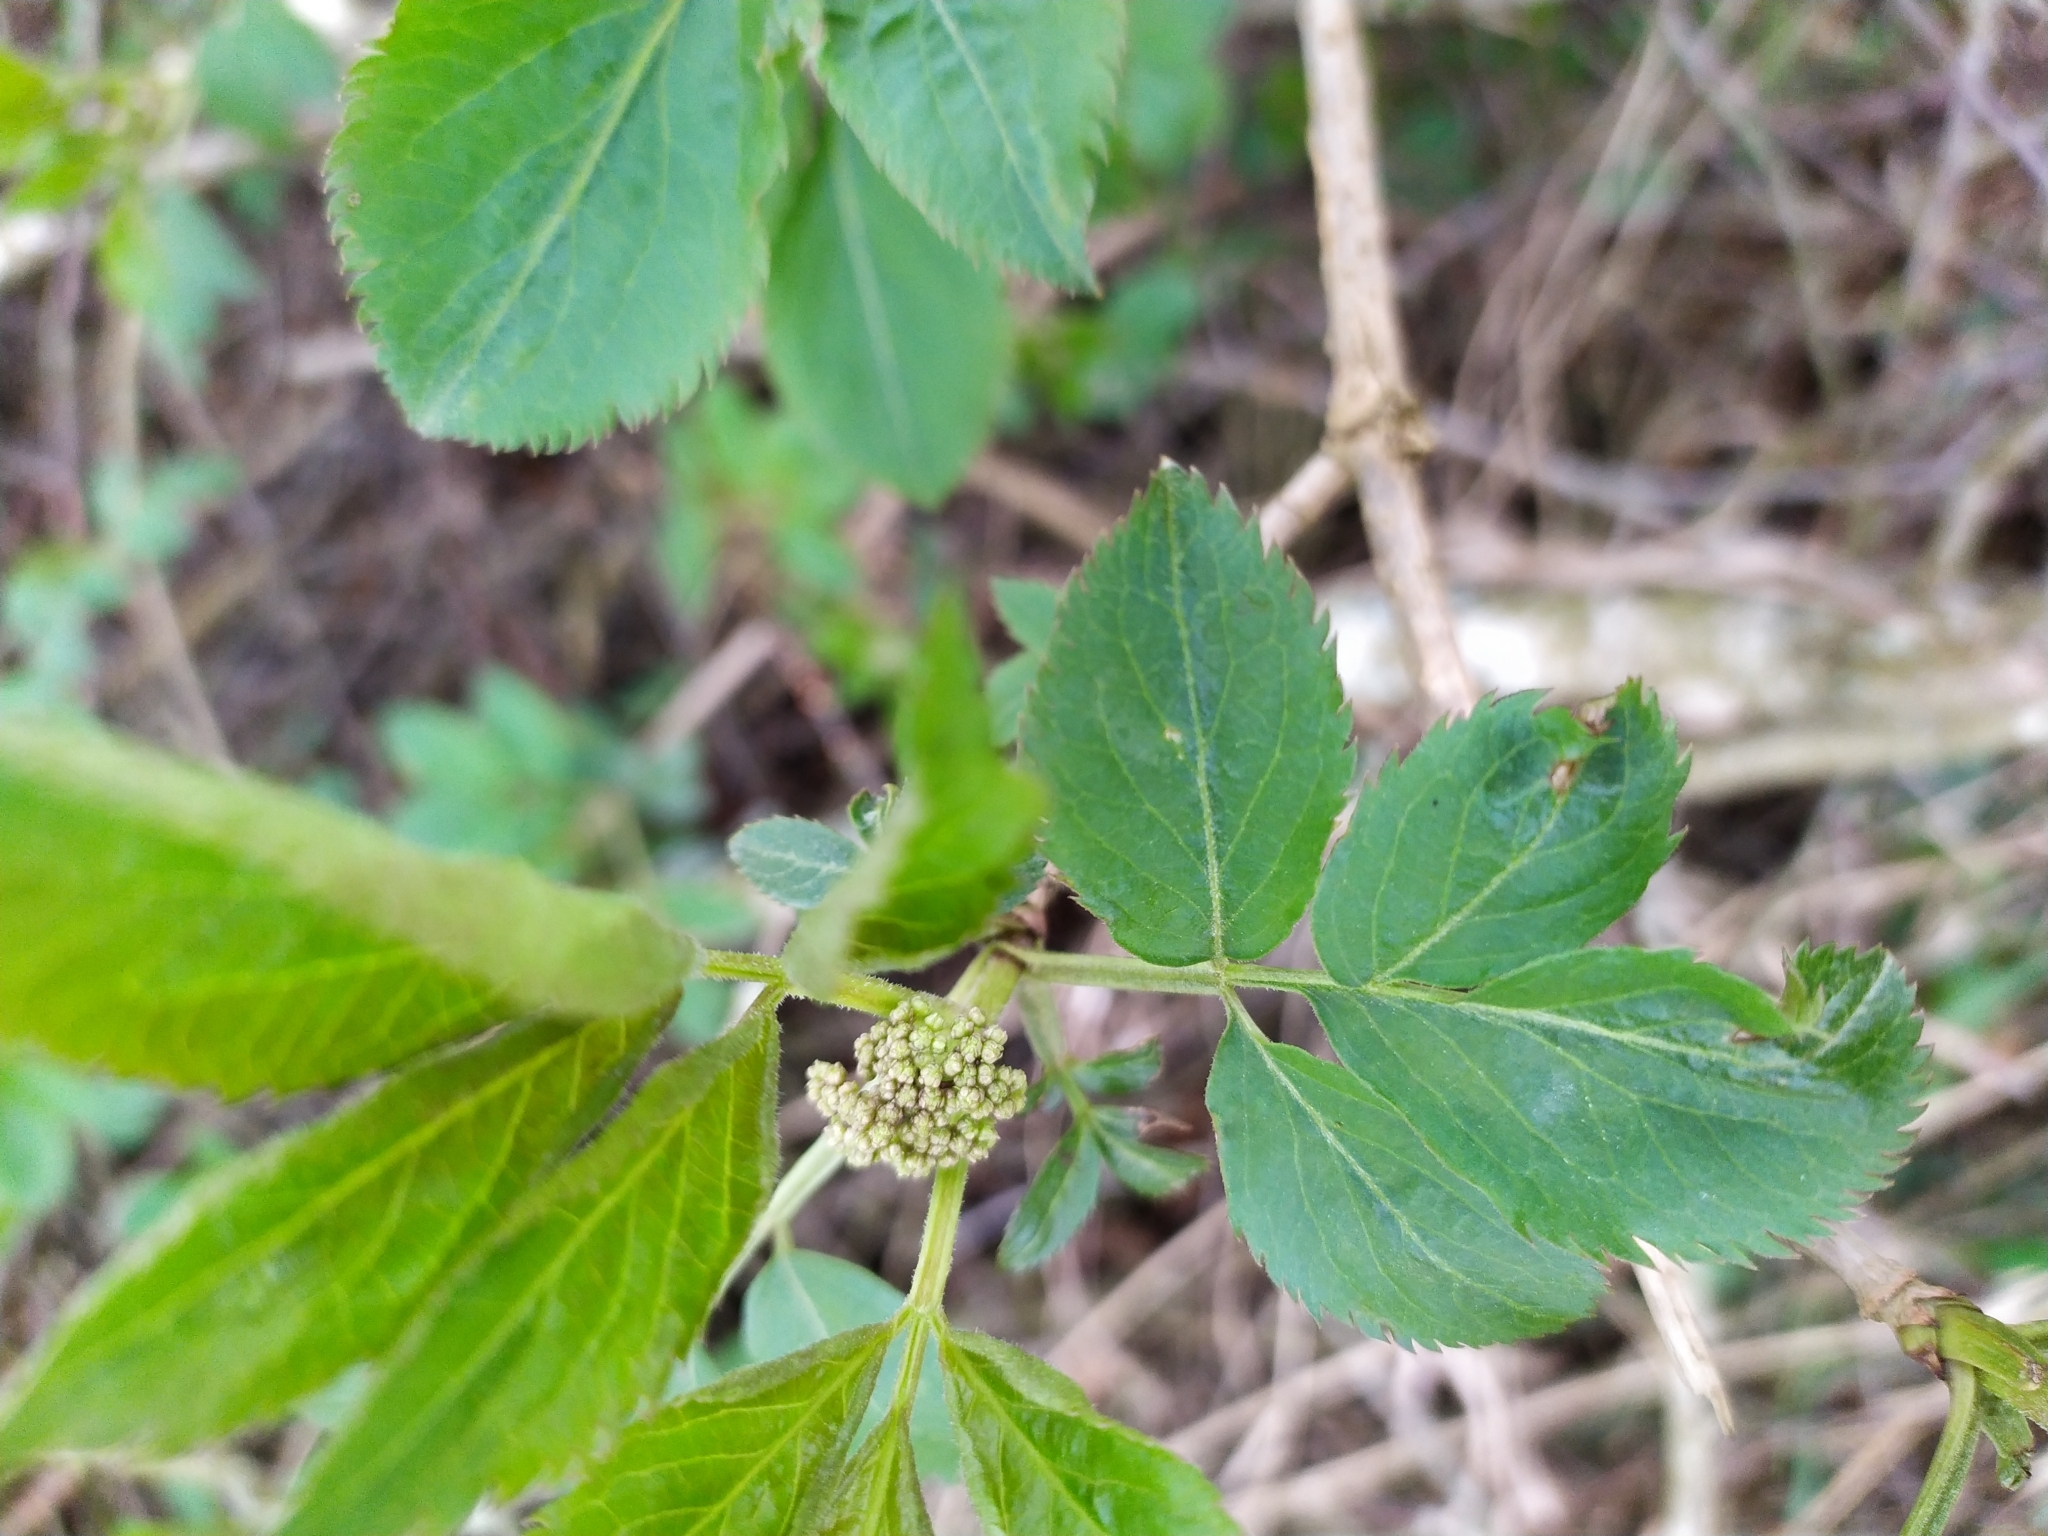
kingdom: Plantae
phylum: Tracheophyta
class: Magnoliopsida
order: Dipsacales
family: Viburnaceae
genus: Sambucus
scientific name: Sambucus nigra
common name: Elder
